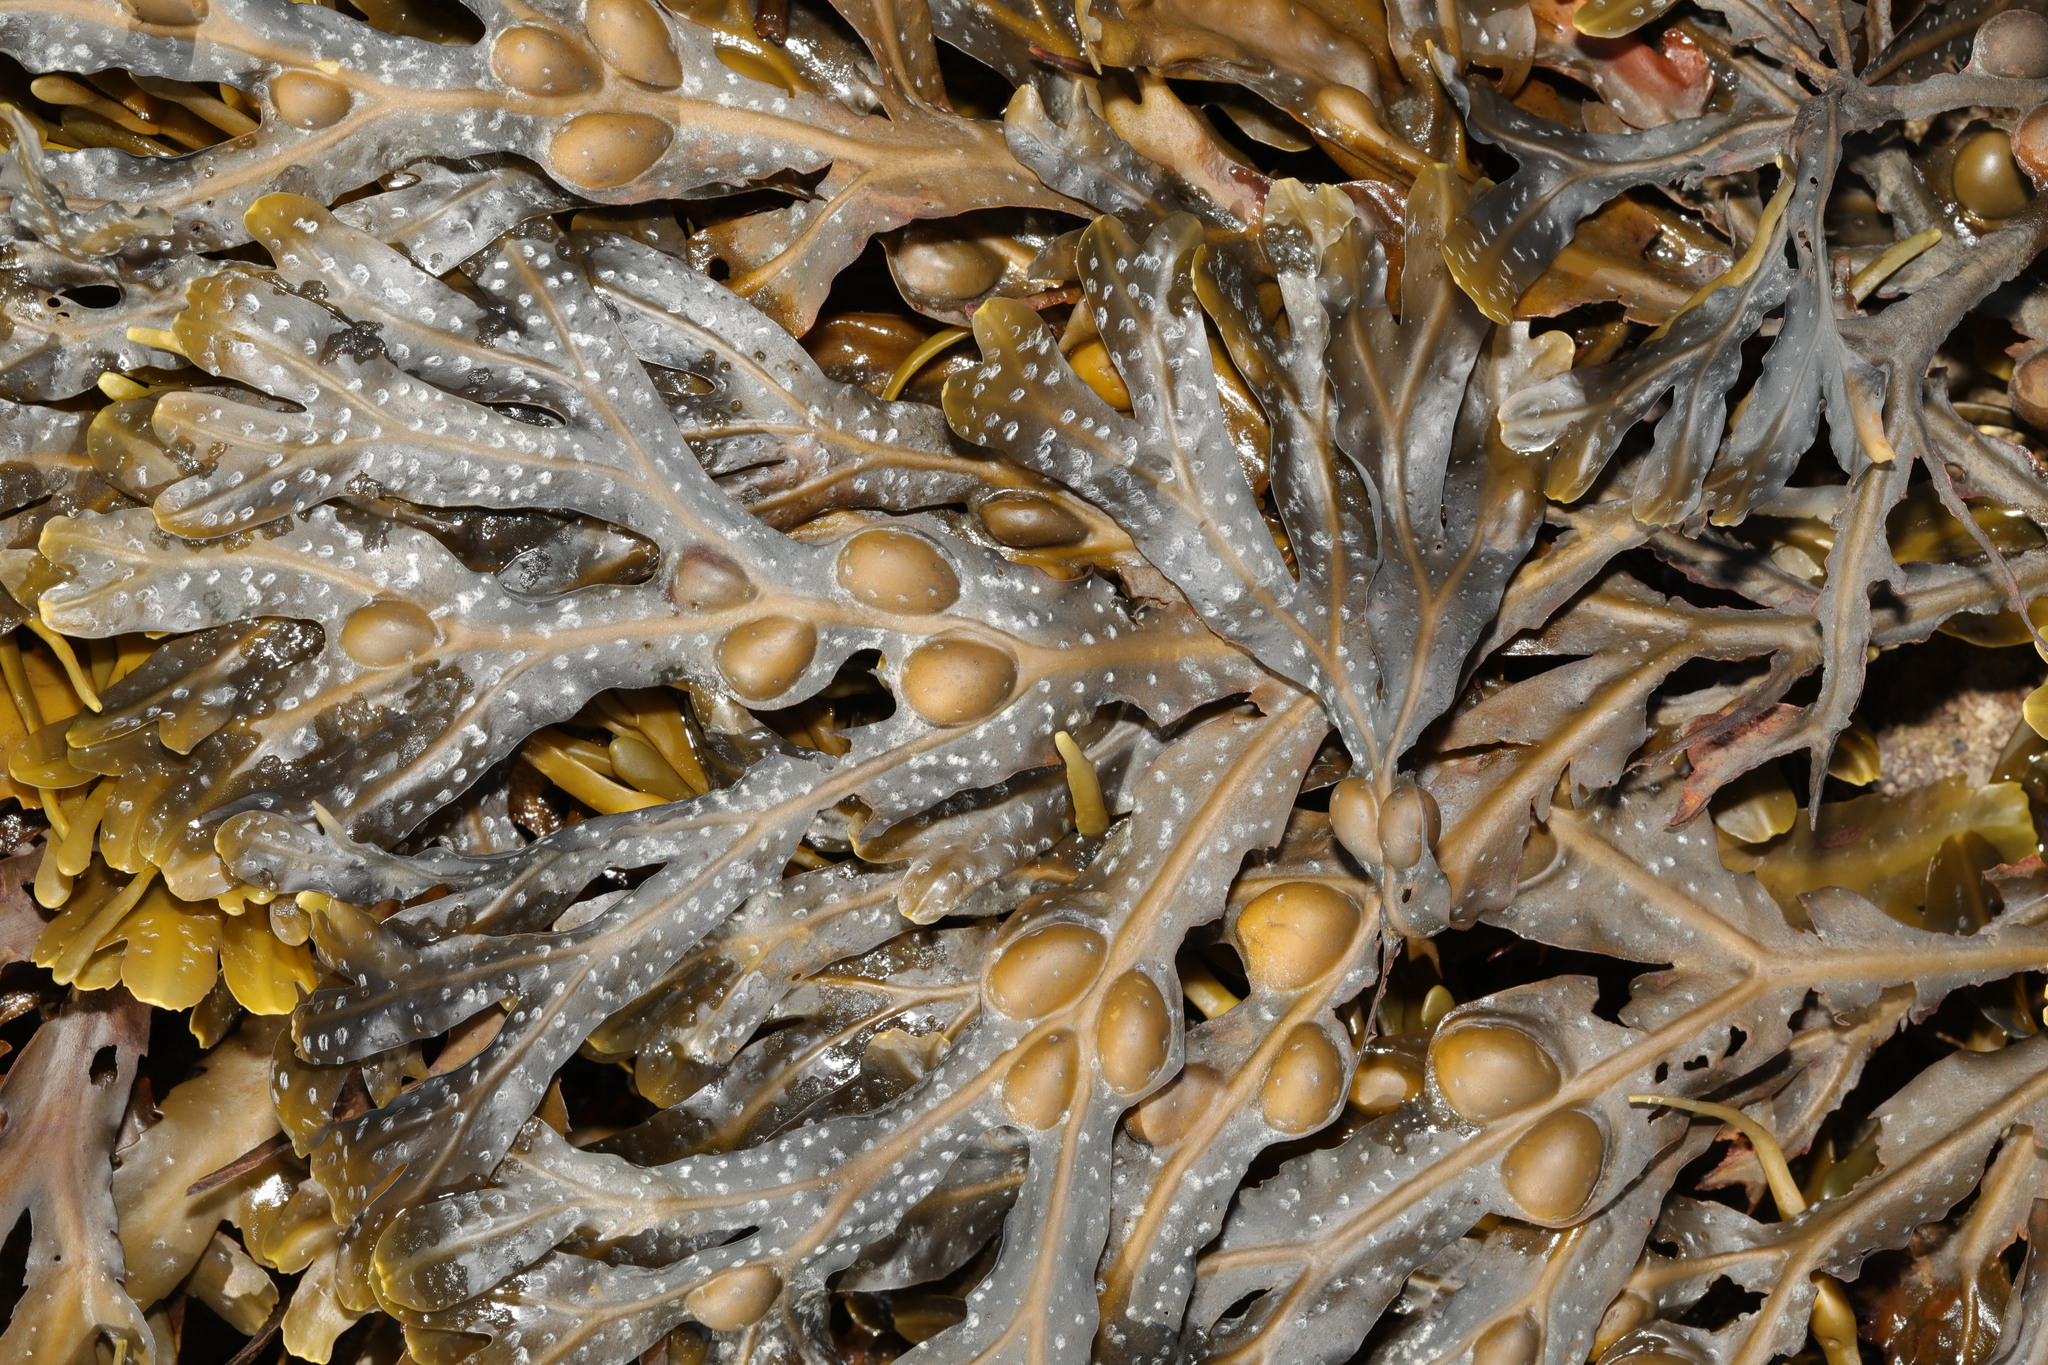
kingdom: Chromista
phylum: Ochrophyta
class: Phaeophyceae
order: Fucales
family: Fucaceae
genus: Fucus
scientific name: Fucus vesiculosus
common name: Bladder wrack
